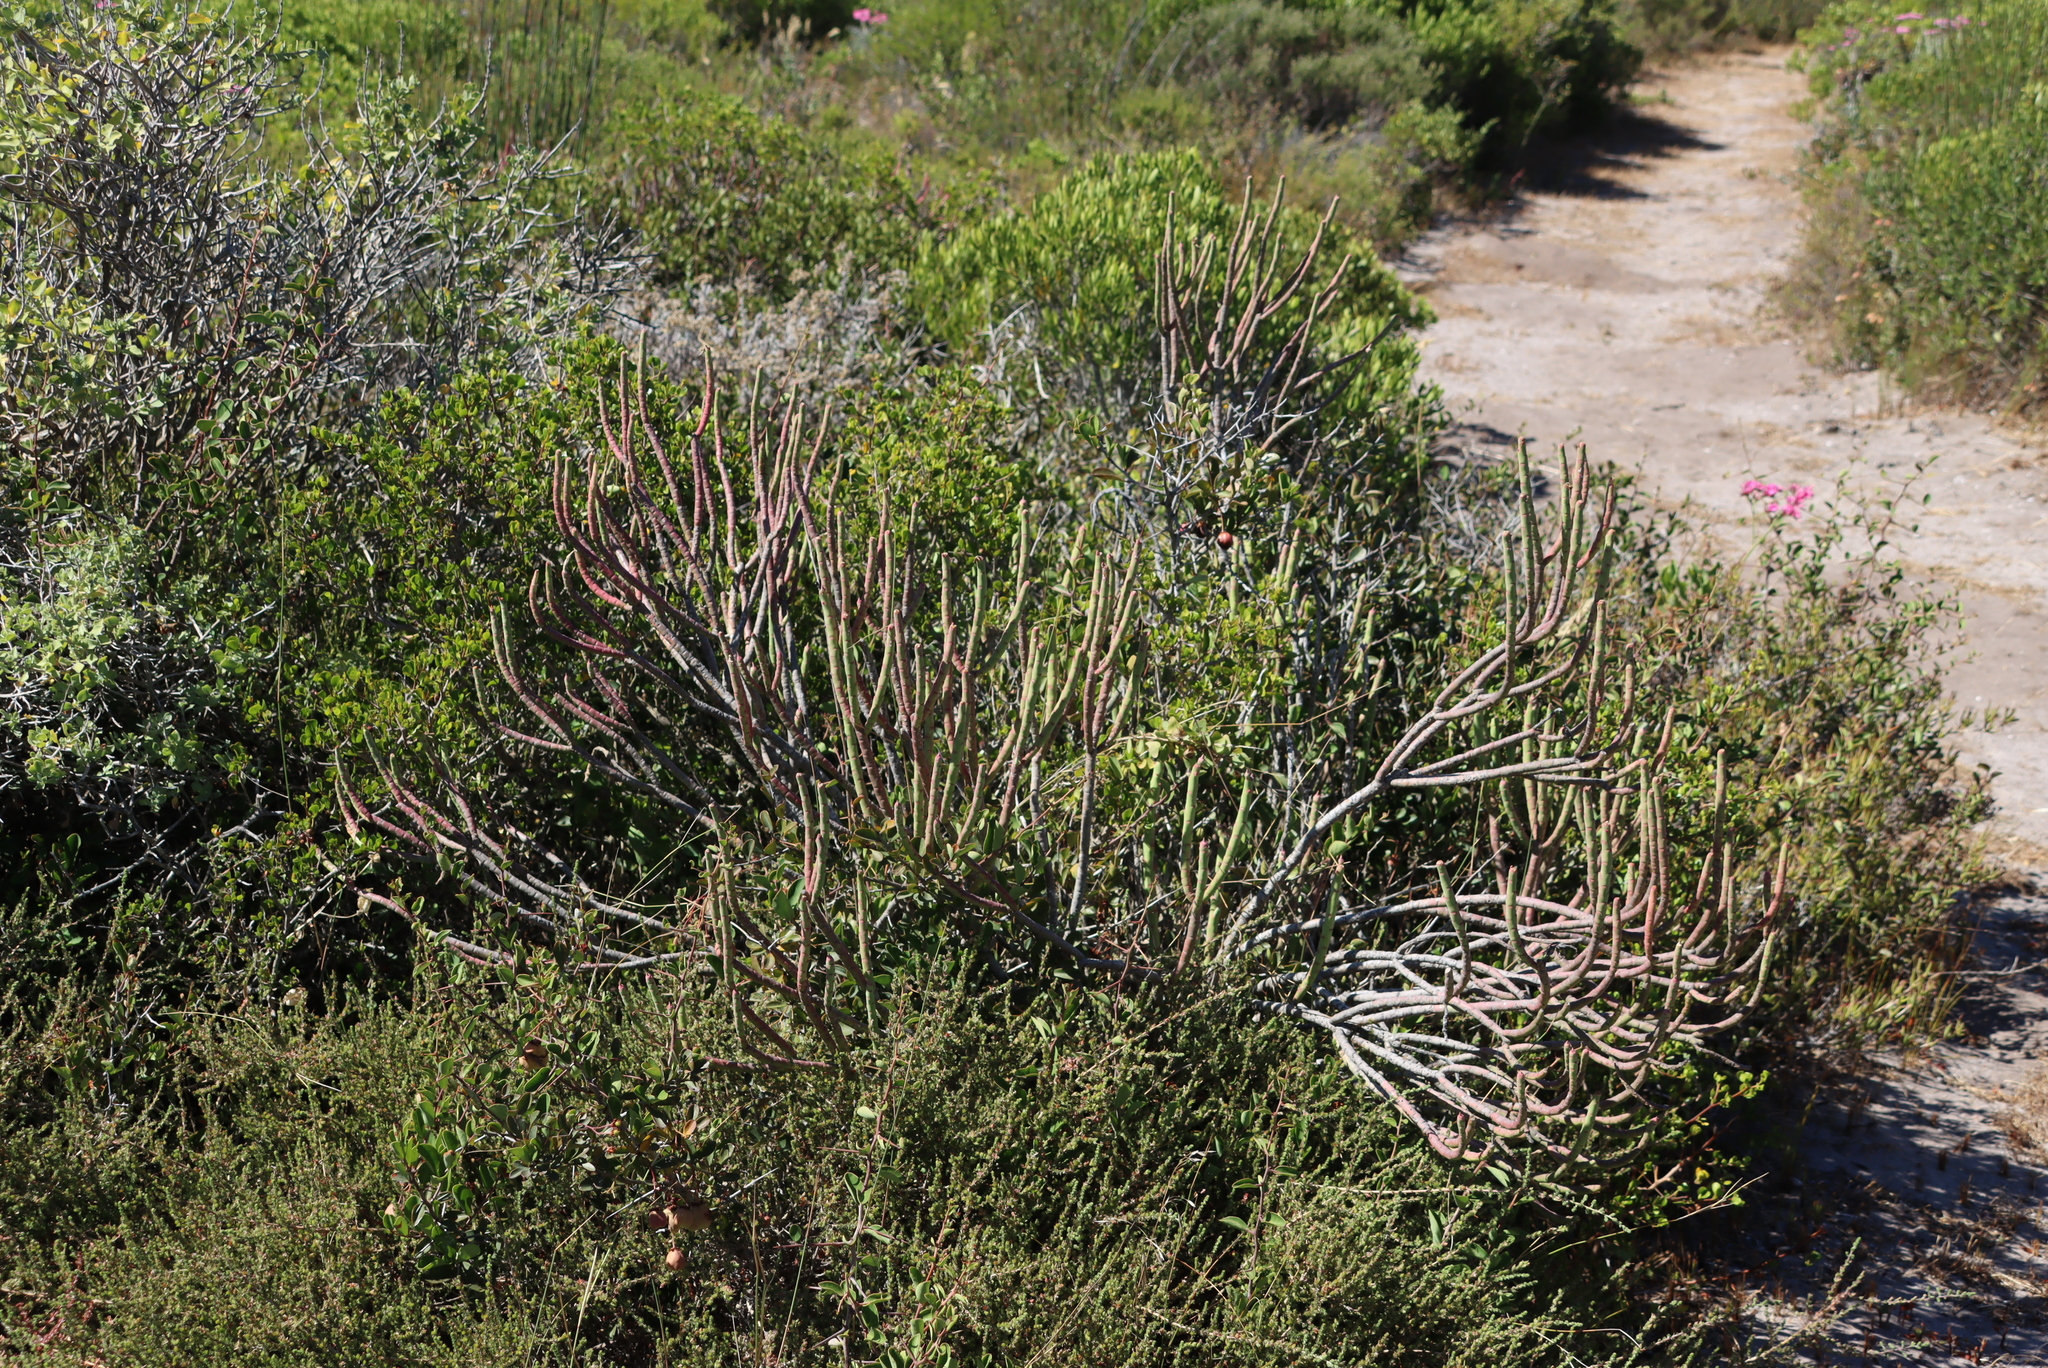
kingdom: Plantae
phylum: Tracheophyta
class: Magnoliopsida
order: Malpighiales
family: Euphorbiaceae
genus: Euphorbia
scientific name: Euphorbia mauritanica
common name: Jackal's-food
